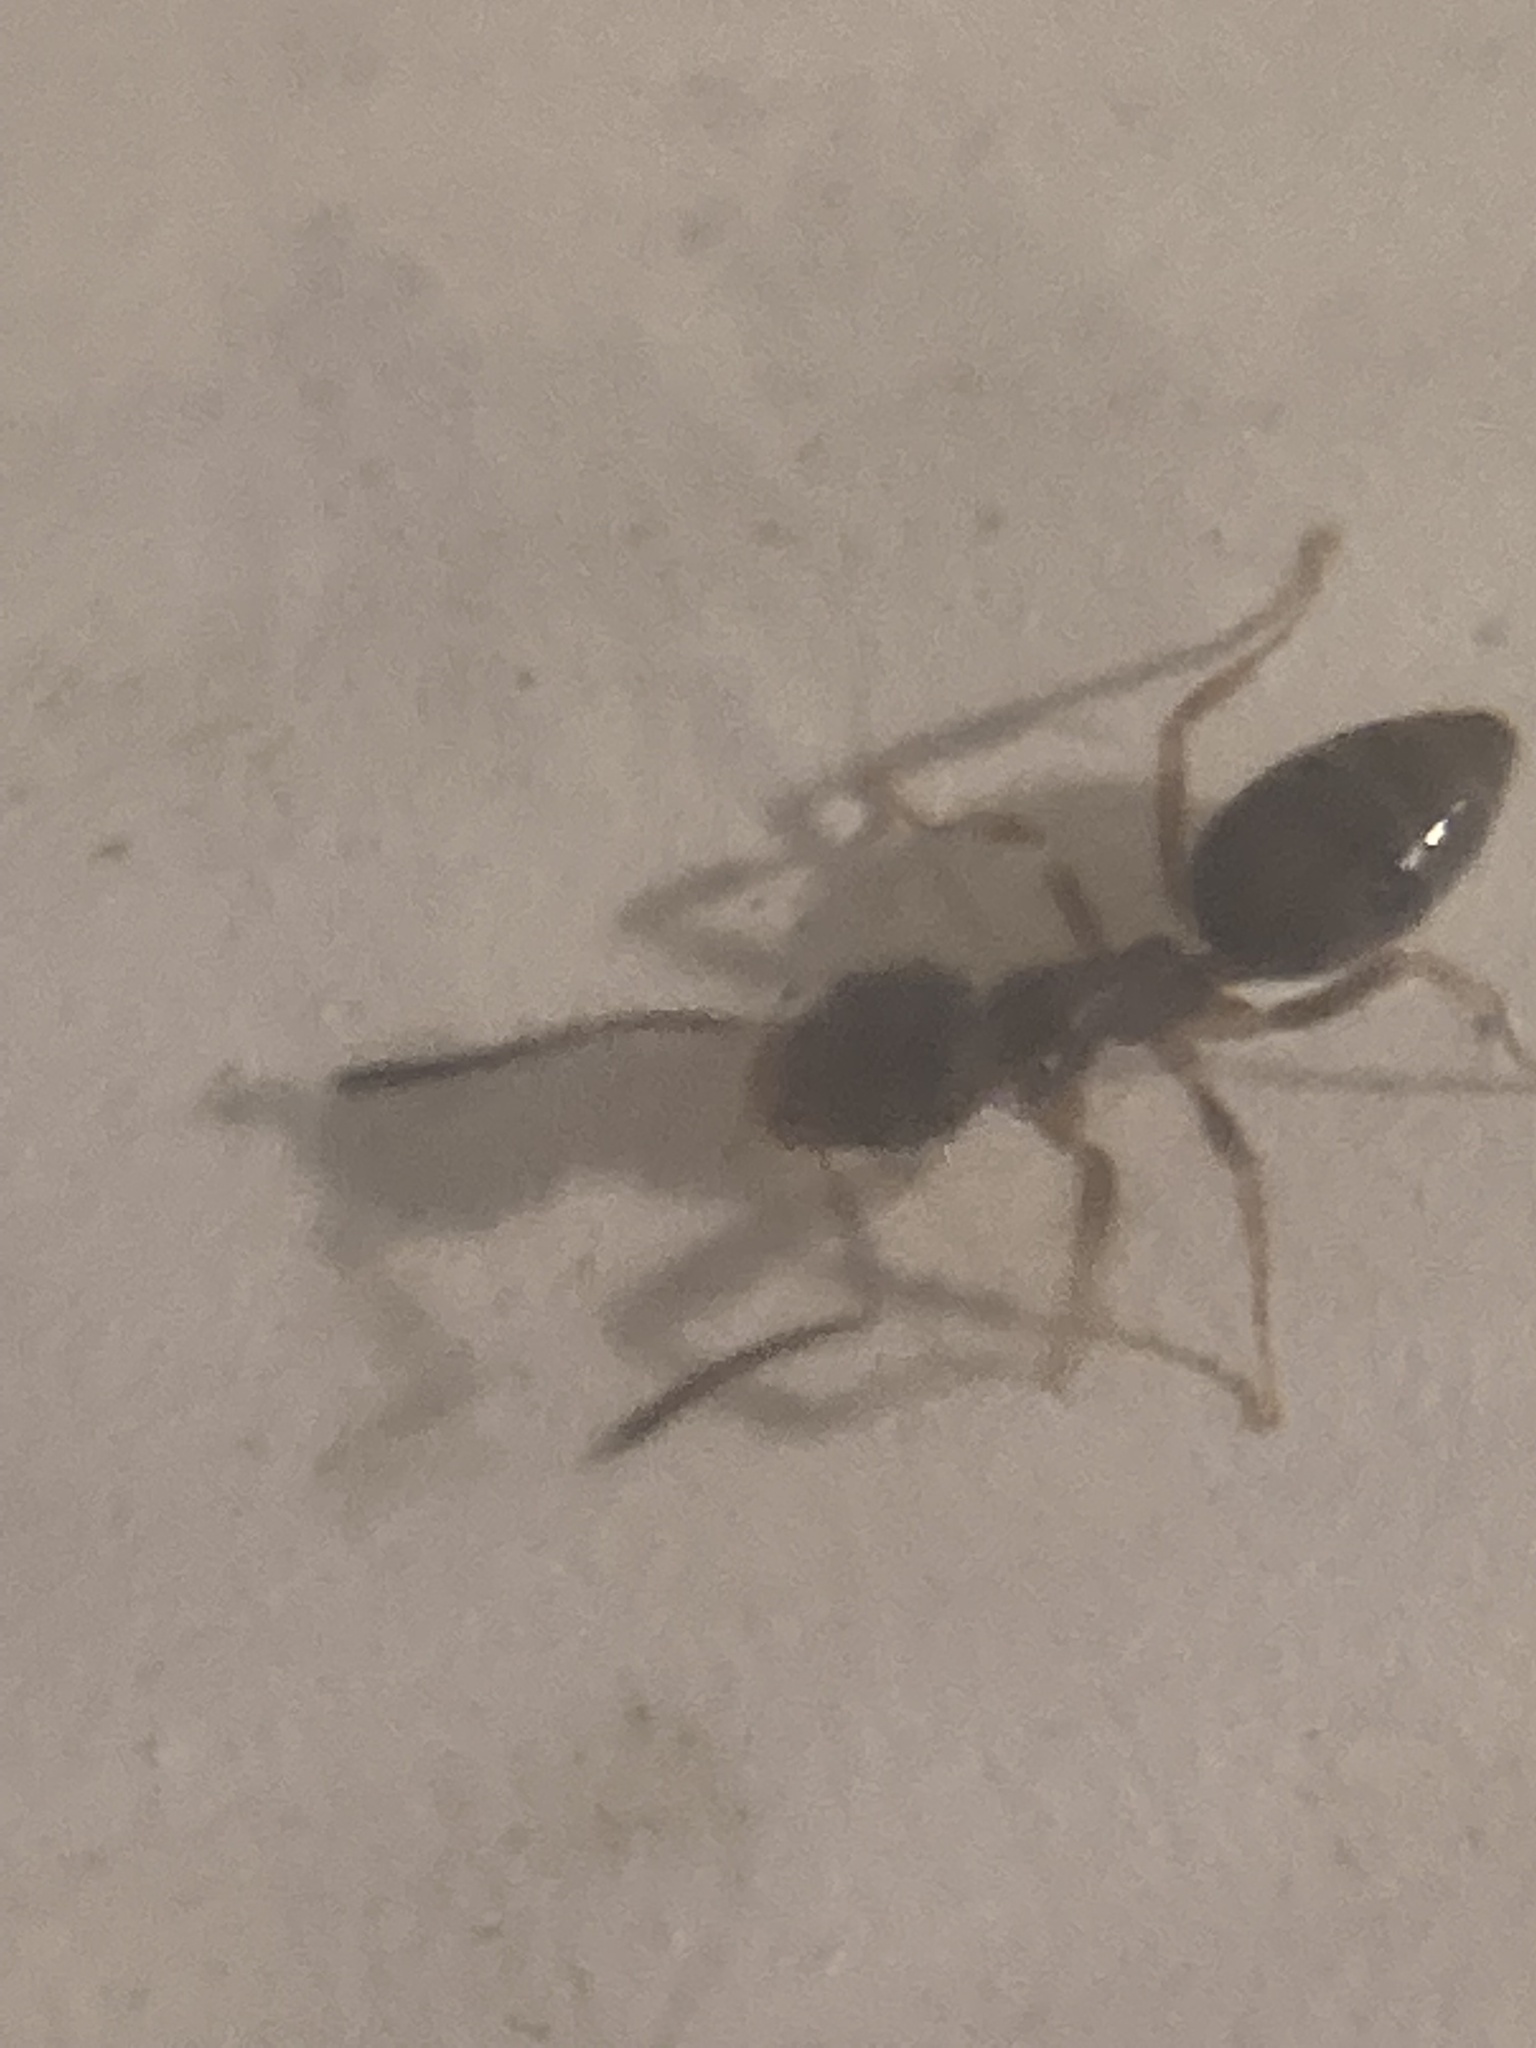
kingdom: Animalia
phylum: Arthropoda
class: Insecta
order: Hymenoptera
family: Formicidae
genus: Tapinoma
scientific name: Tapinoma sessile
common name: Odorous house ant
